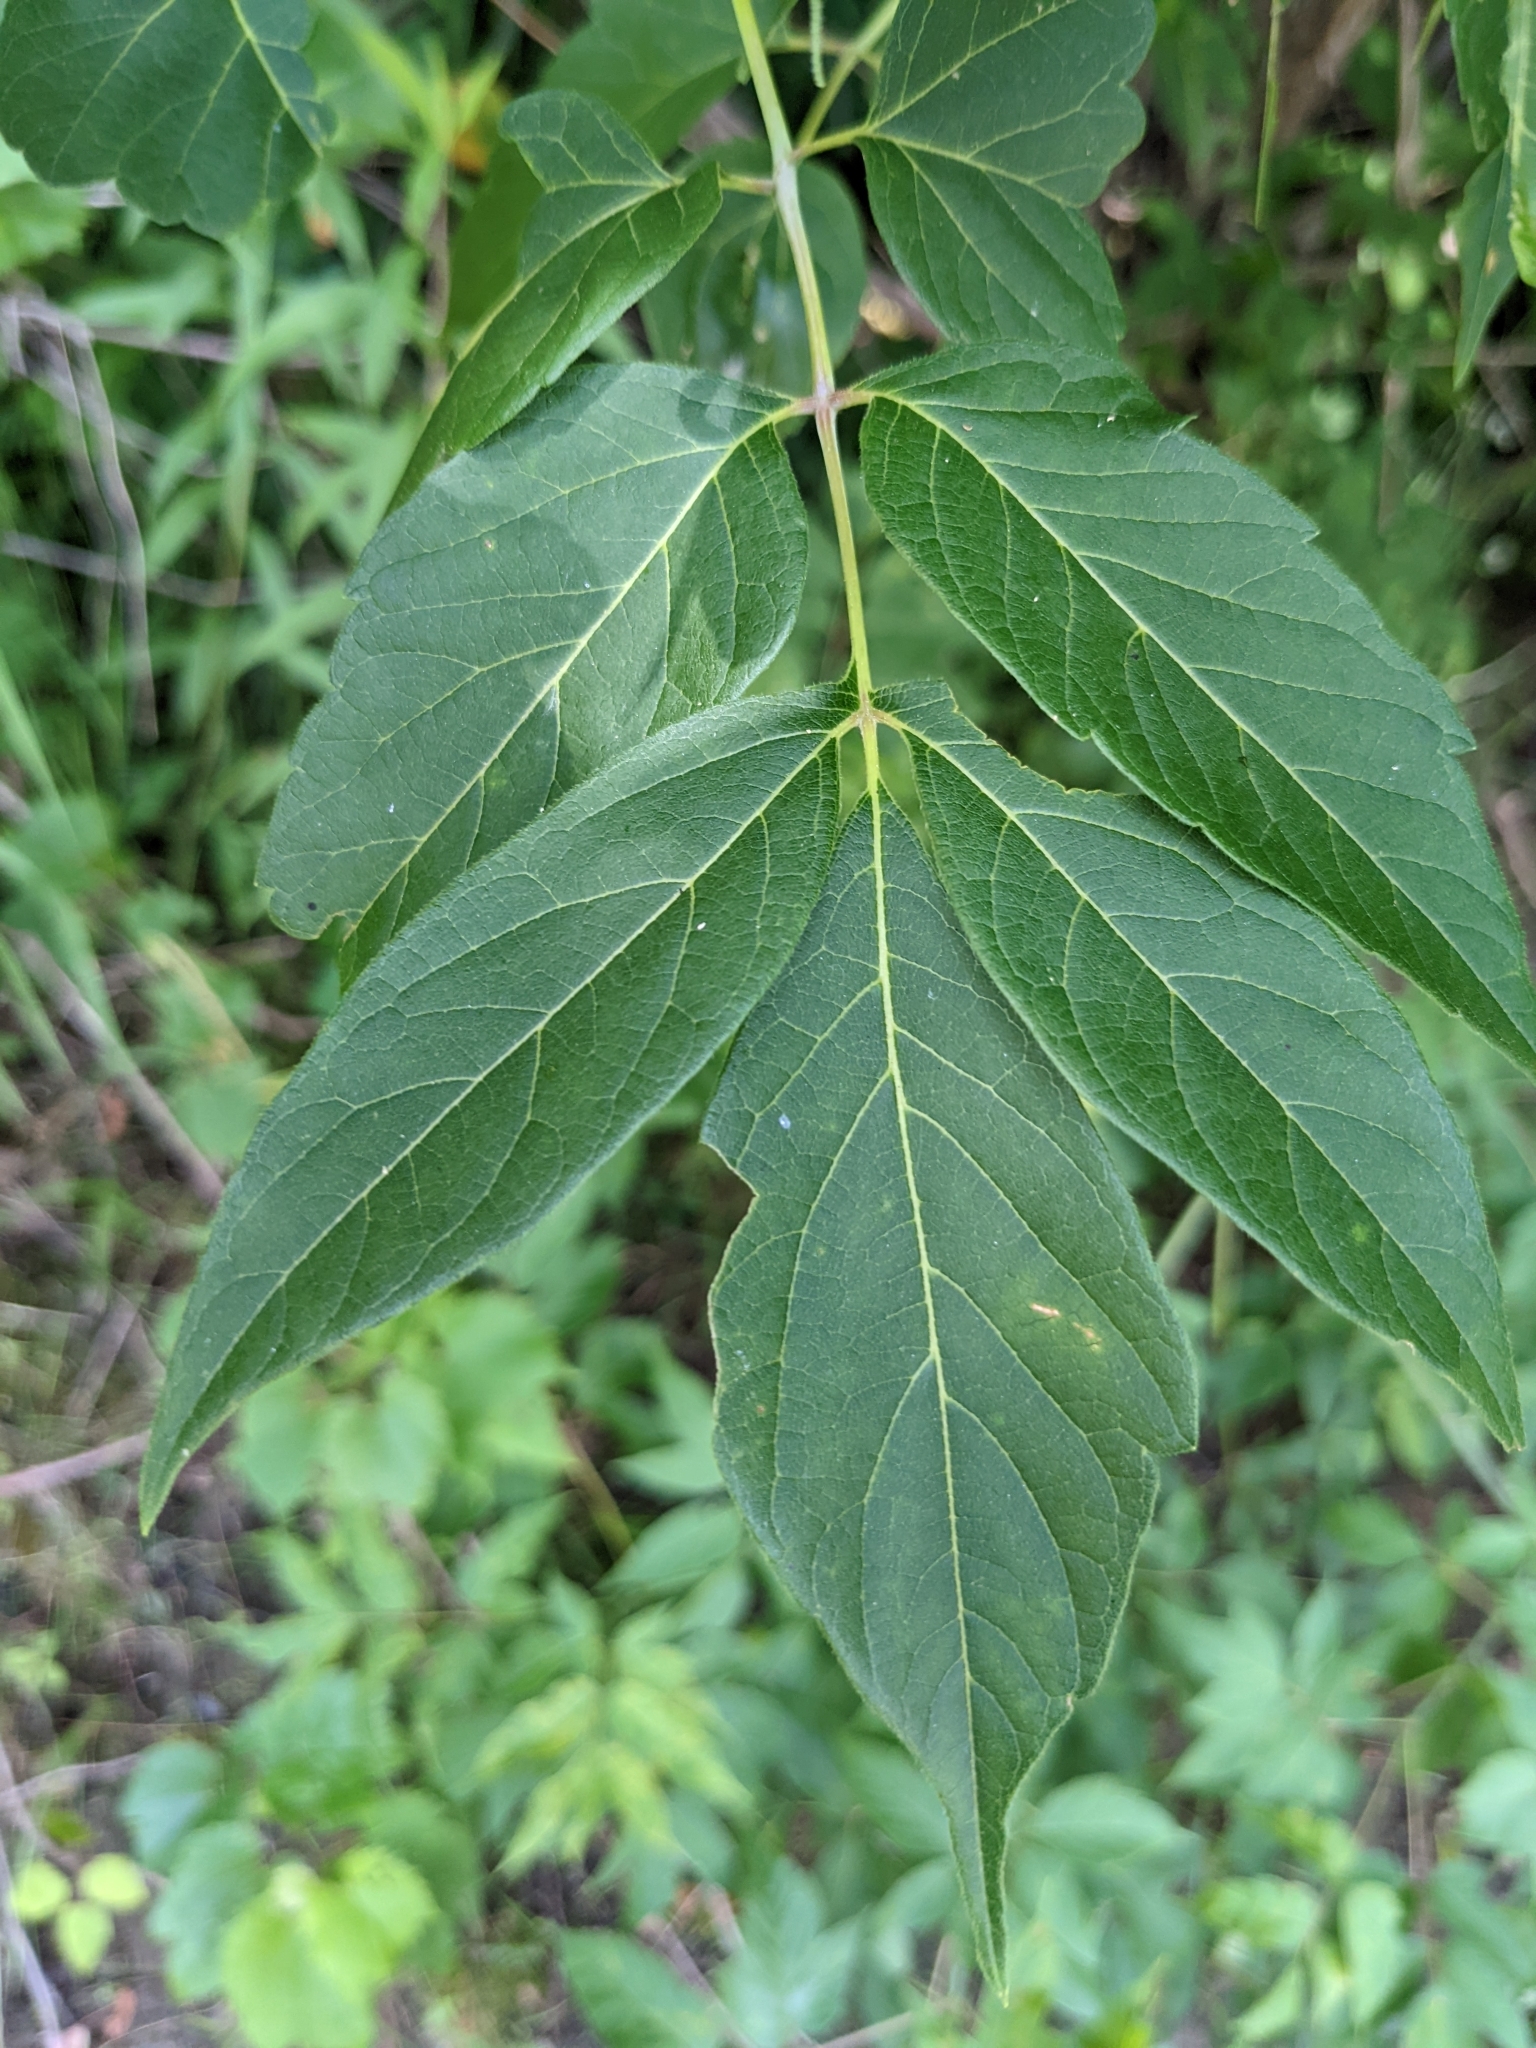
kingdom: Plantae
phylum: Tracheophyta
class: Magnoliopsida
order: Sapindales
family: Sapindaceae
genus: Acer
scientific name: Acer negundo
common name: Ashleaf maple
